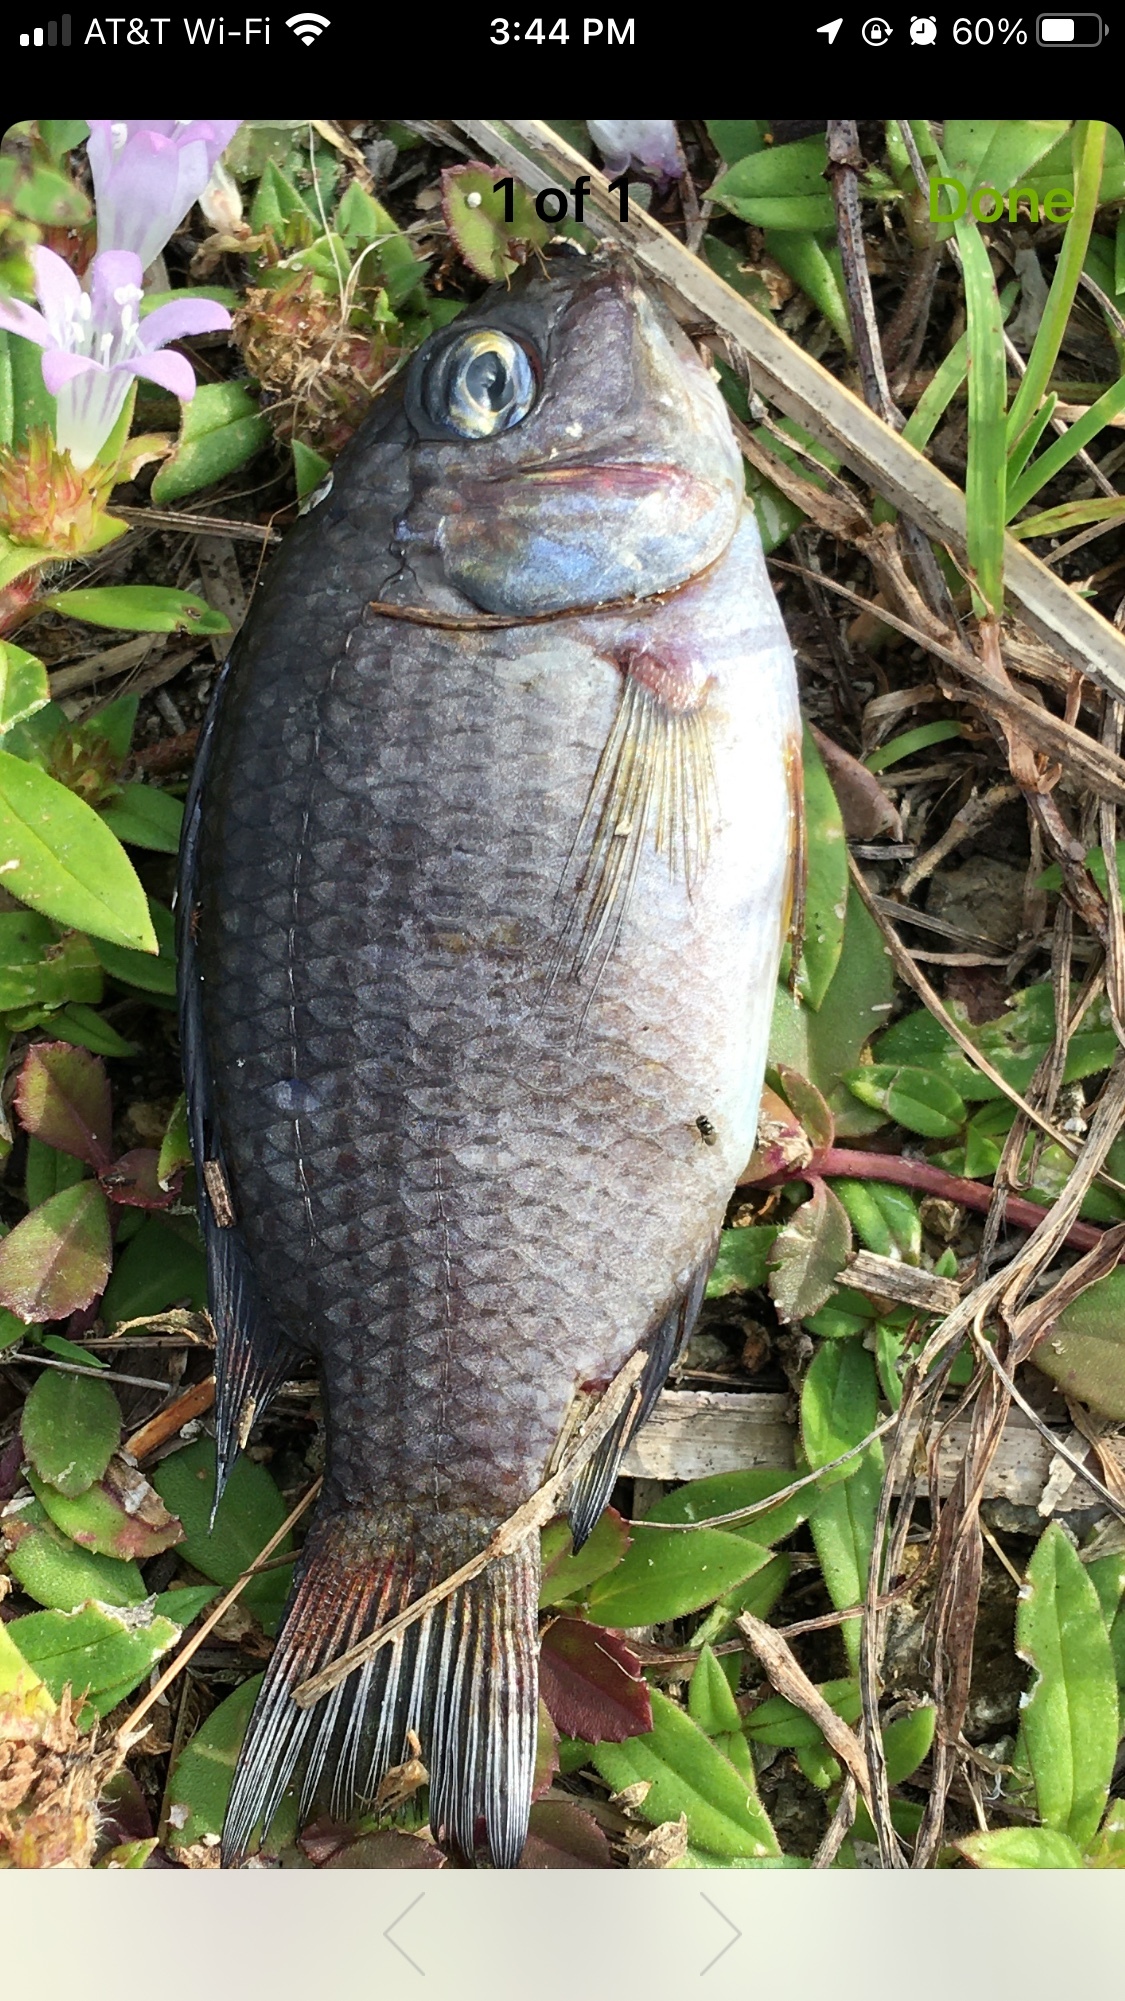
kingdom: Animalia
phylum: Chordata
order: Perciformes
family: Cichlidae
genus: Sarotherodon
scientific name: Sarotherodon melanotheron
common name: Blackchin tilapia
